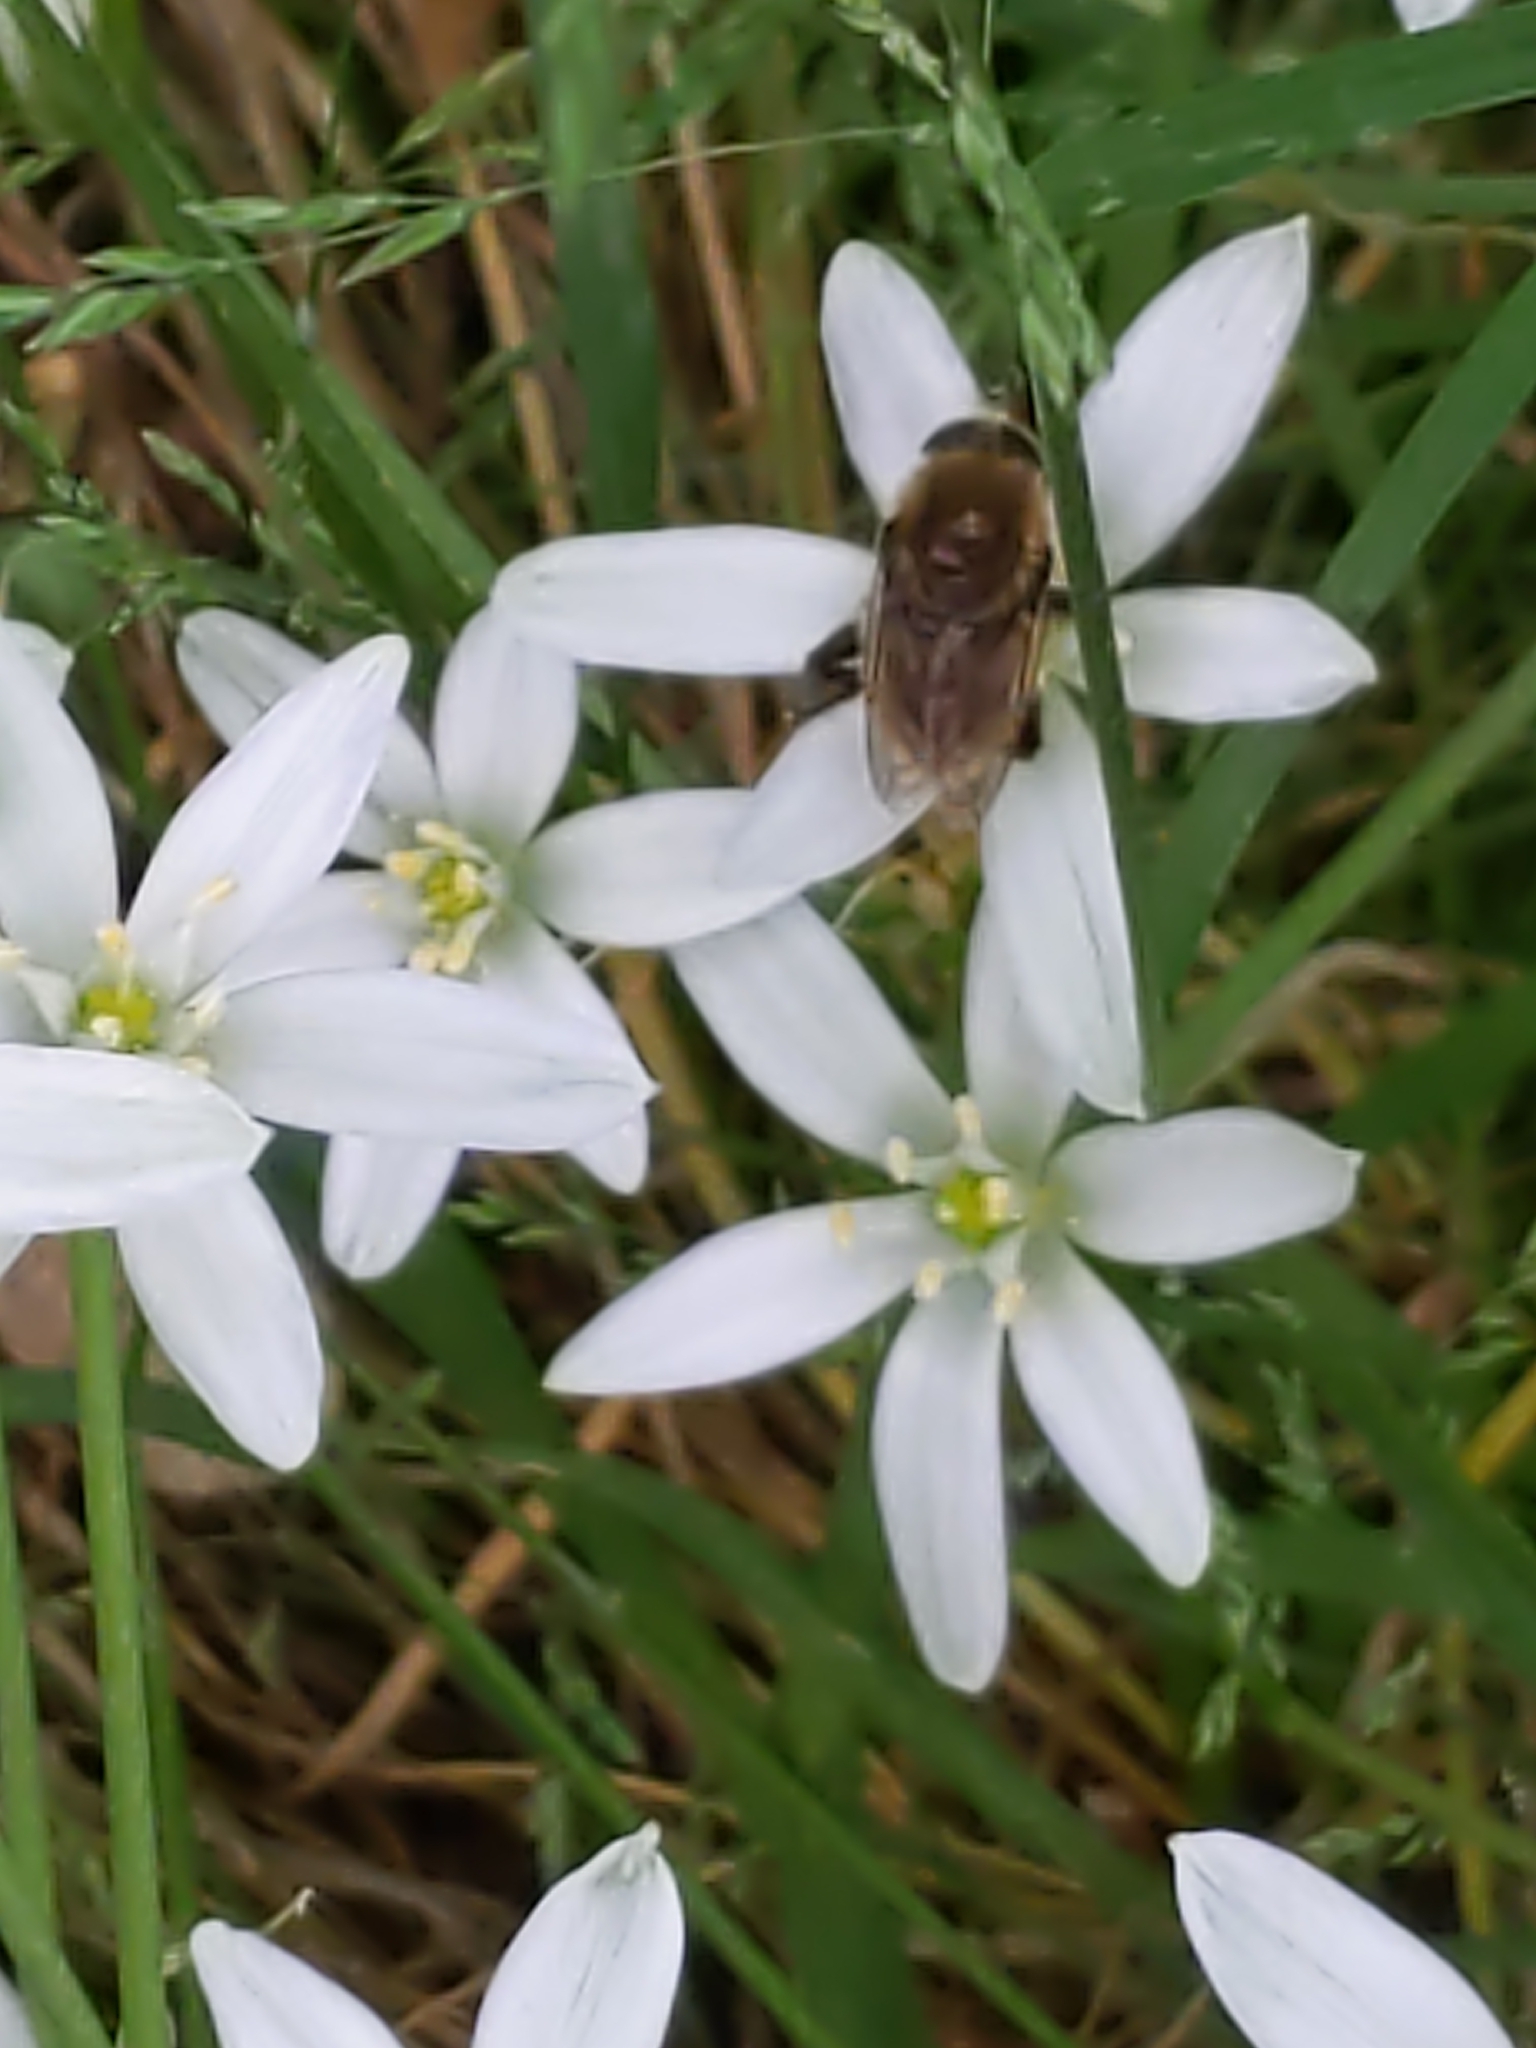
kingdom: Plantae
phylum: Tracheophyta
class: Liliopsida
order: Asparagales
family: Asparagaceae
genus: Ornithogalum
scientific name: Ornithogalum umbellatum
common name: Garden star-of-bethlehem
